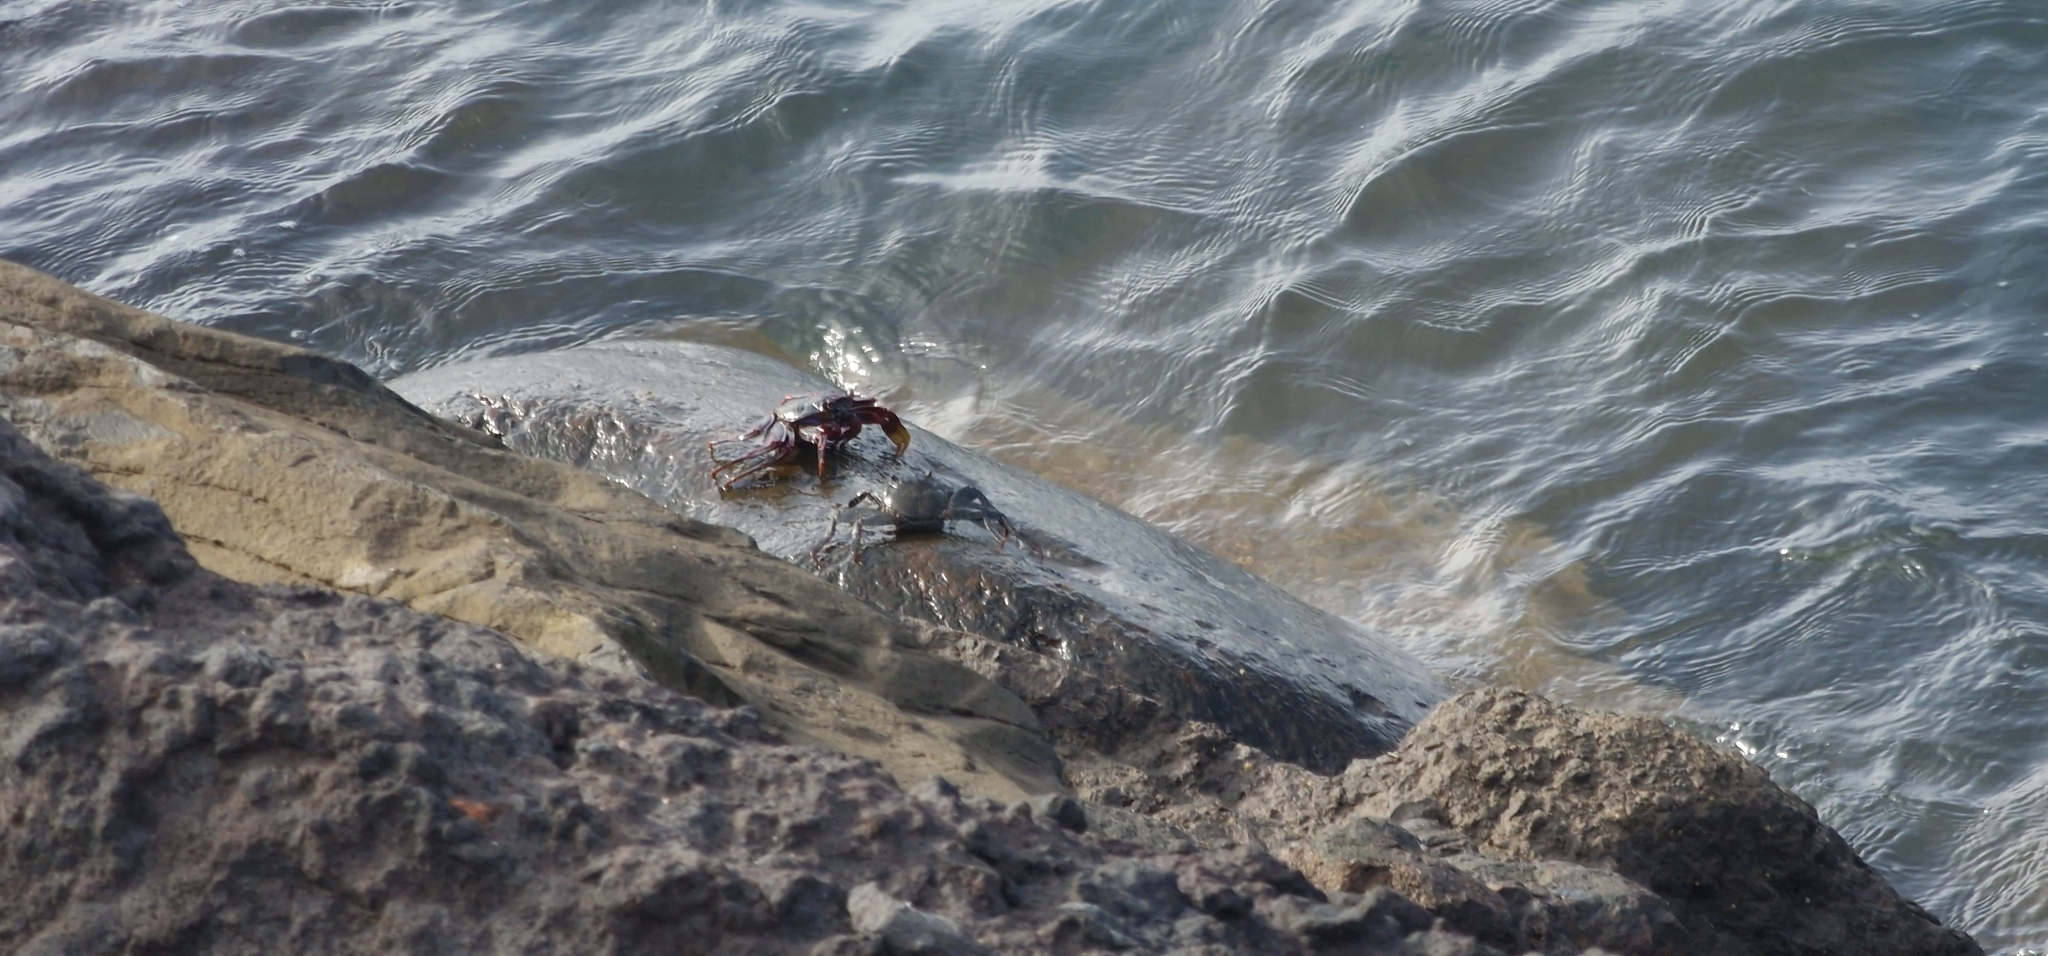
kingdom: Animalia
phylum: Arthropoda
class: Malacostraca
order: Decapoda
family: Grapsidae
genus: Grapsus
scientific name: Grapsus adscensionis
